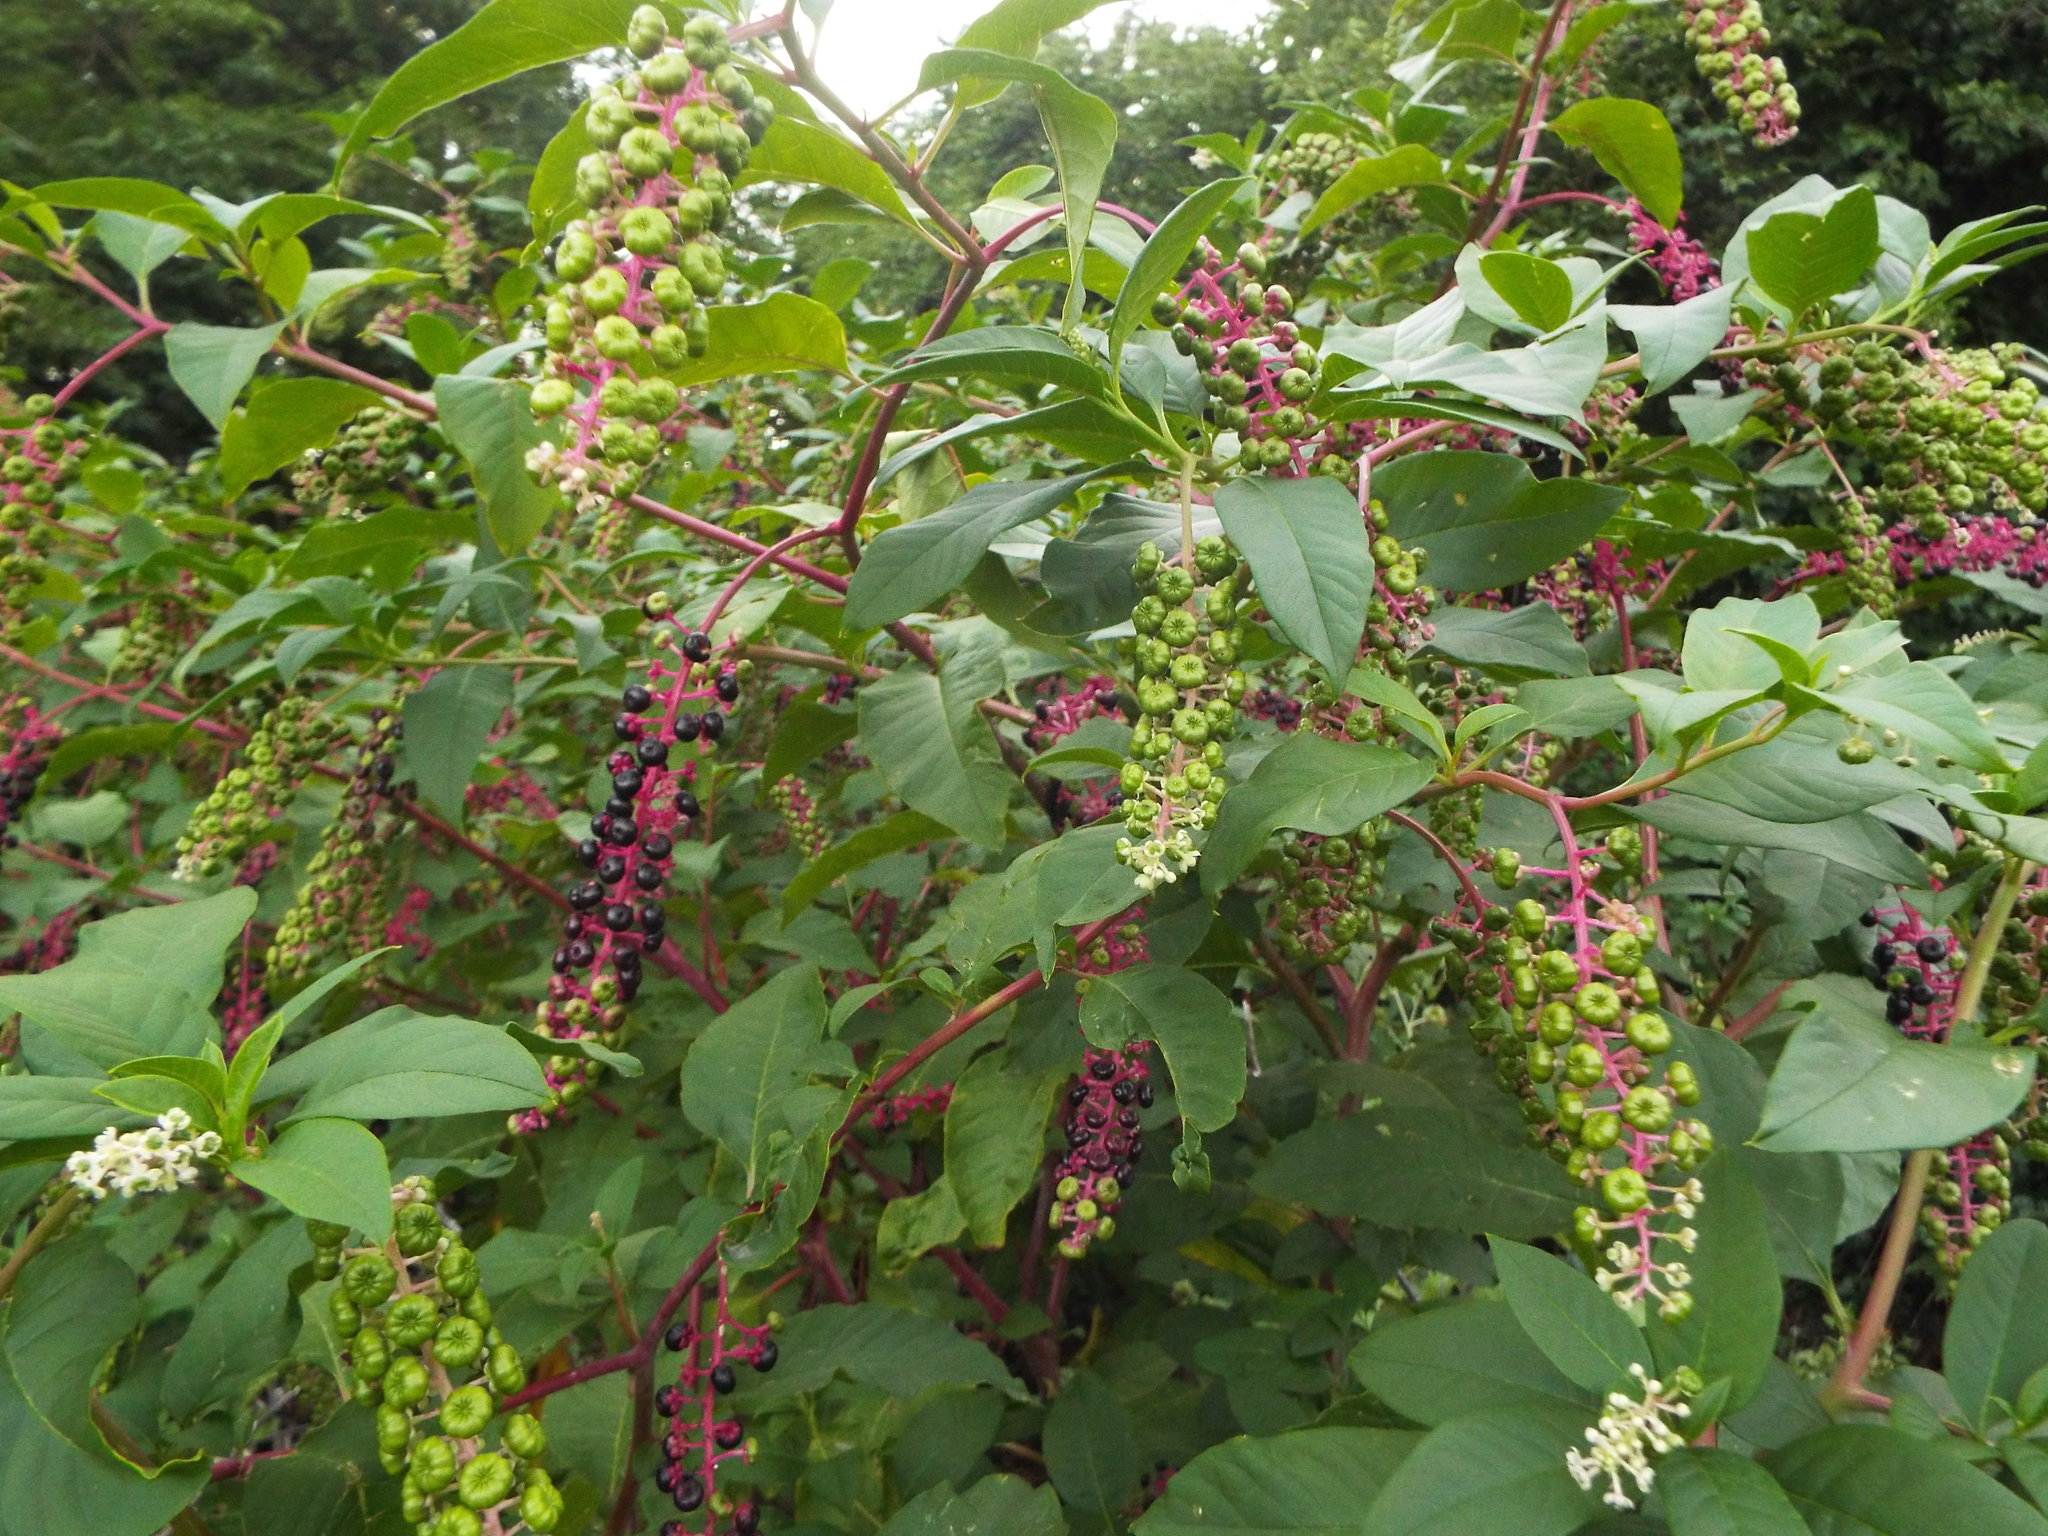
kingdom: Plantae
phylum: Tracheophyta
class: Magnoliopsida
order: Caryophyllales
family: Phytolaccaceae
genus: Phytolacca
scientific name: Phytolacca americana
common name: American pokeweed
